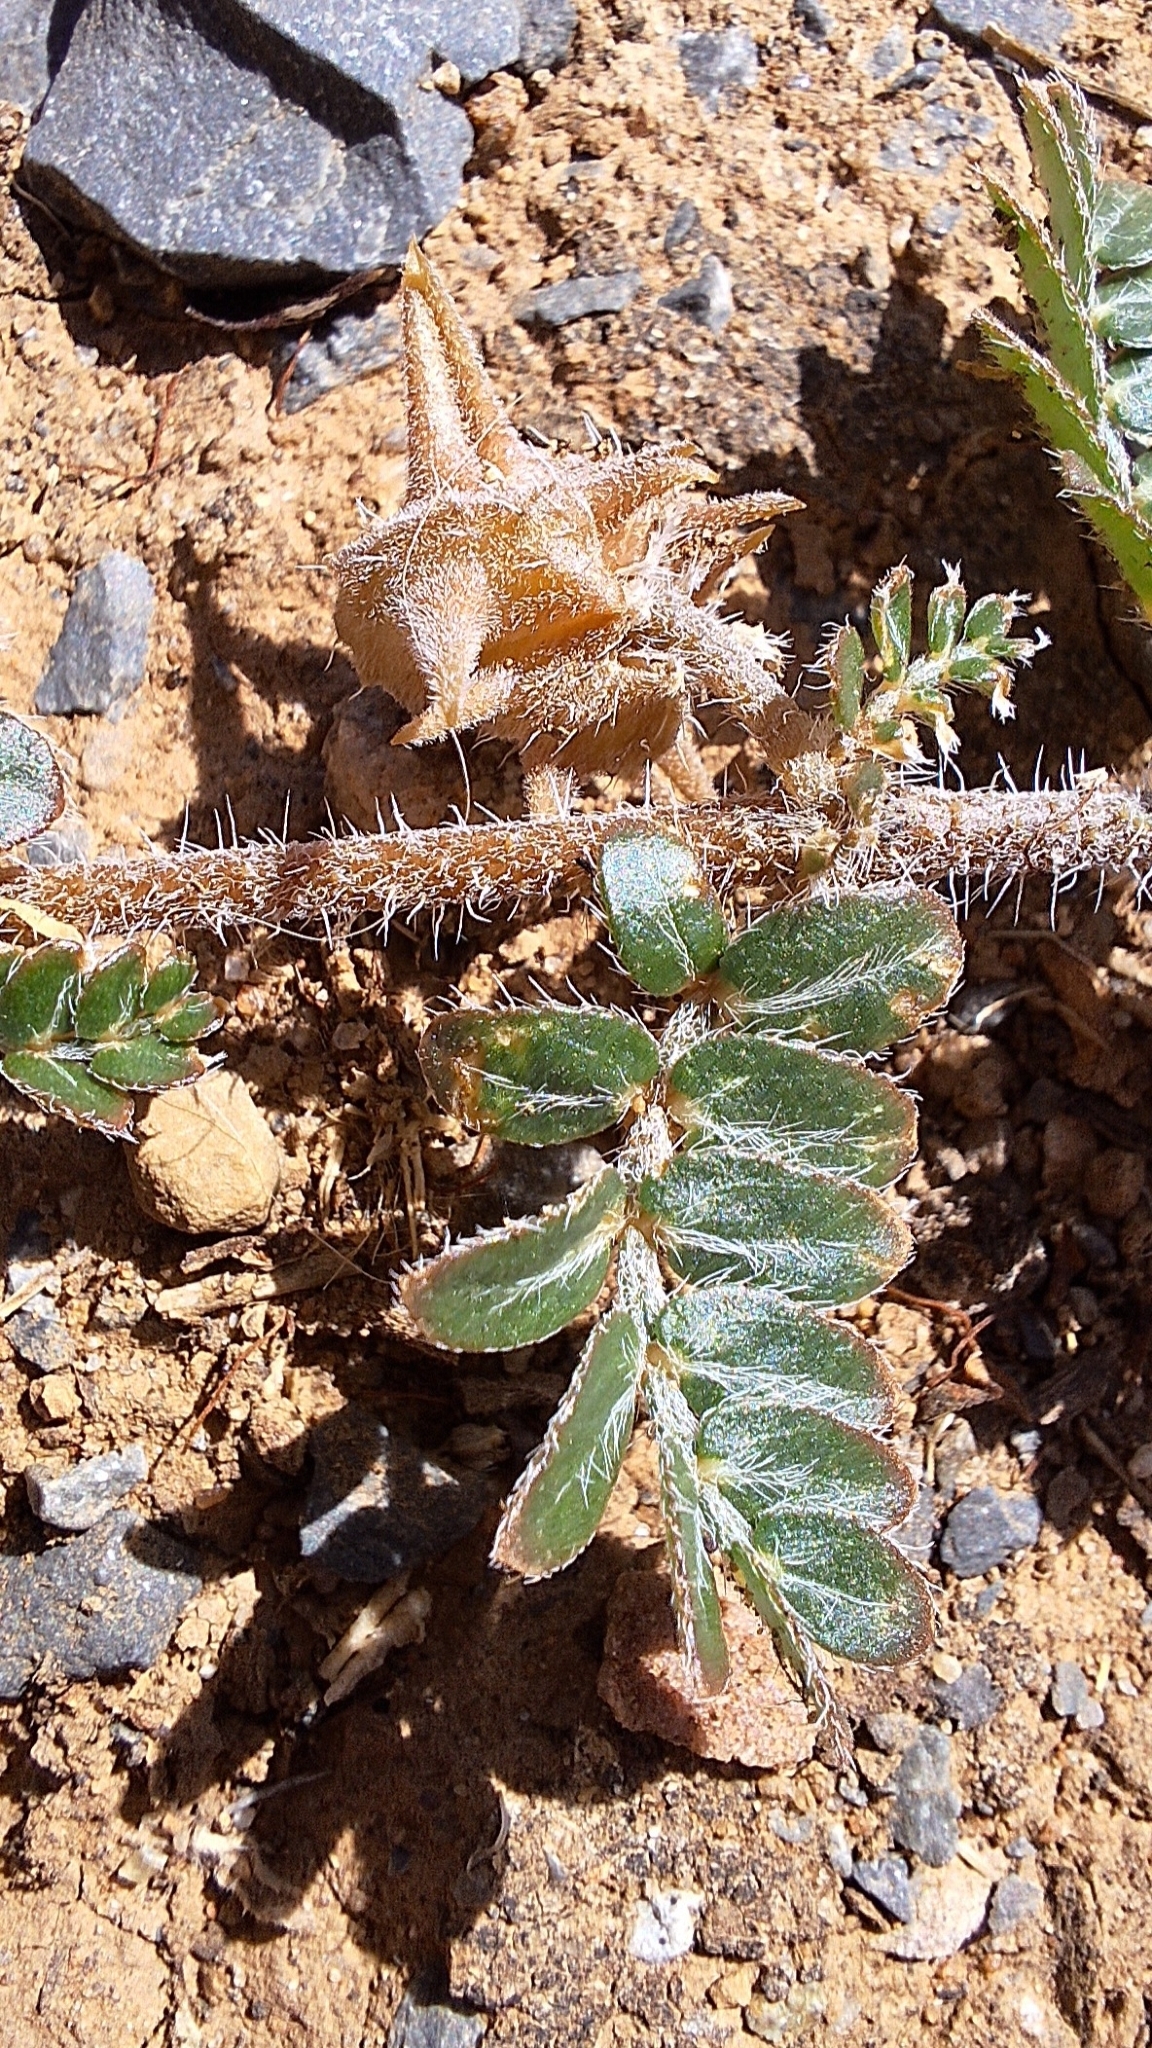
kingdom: Plantae
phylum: Tracheophyta
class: Magnoliopsida
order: Zygophyllales
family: Zygophyllaceae
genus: Tribulus
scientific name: Tribulus terrestris
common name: Puncturevine
